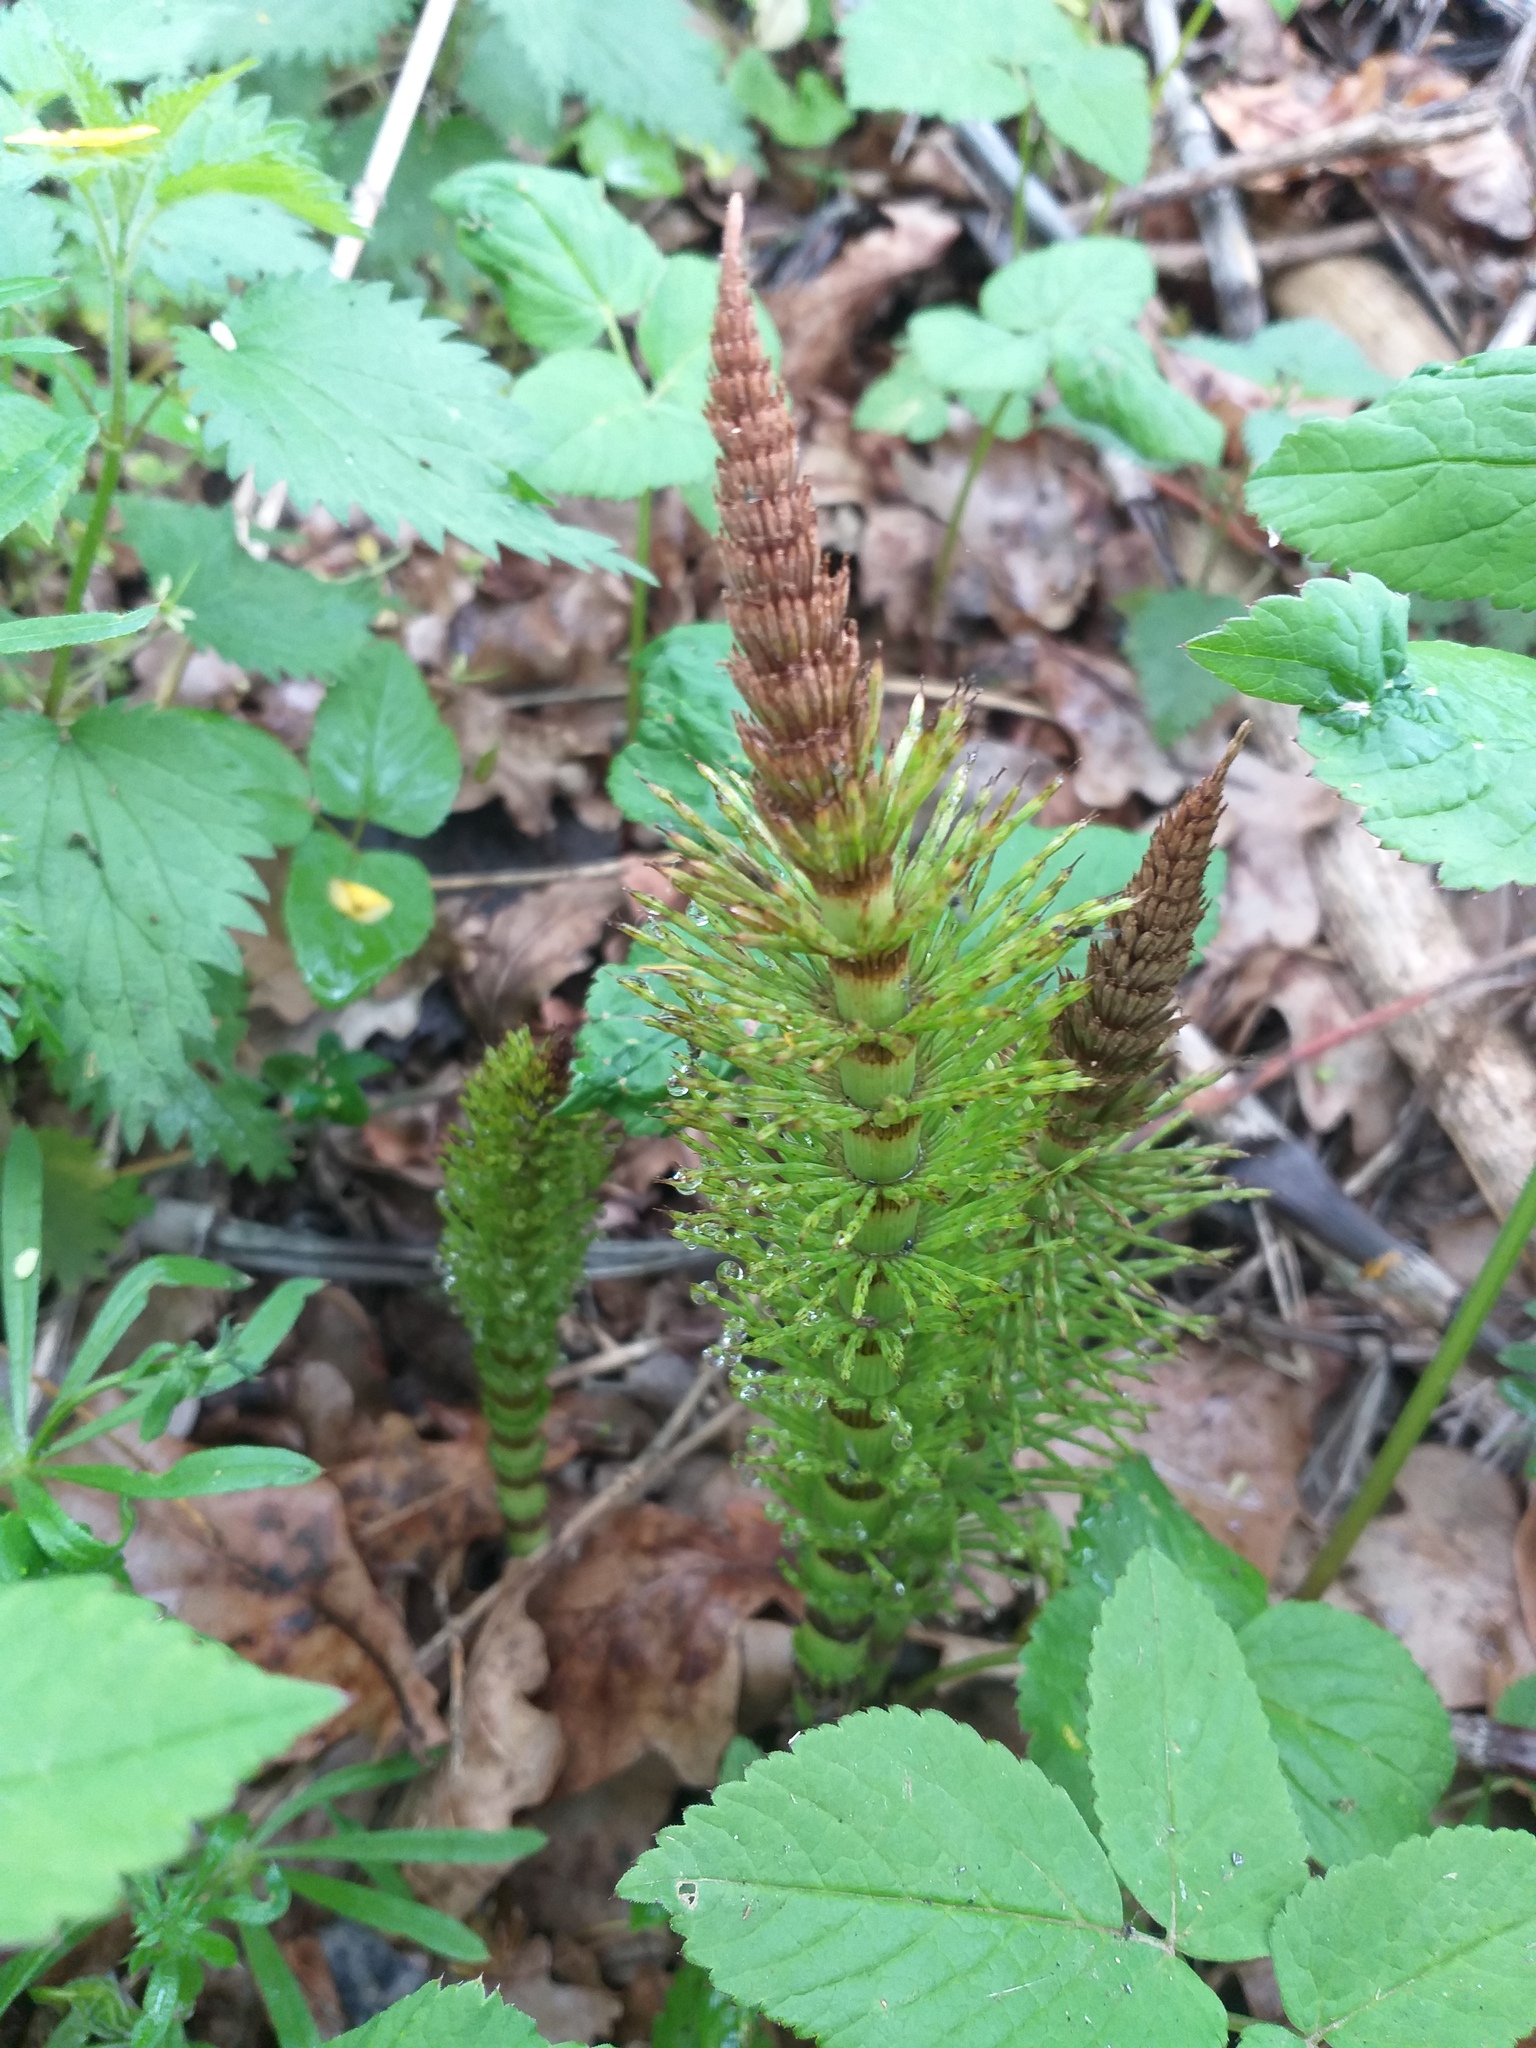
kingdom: Plantae
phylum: Tracheophyta
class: Polypodiopsida
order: Equisetales
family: Equisetaceae
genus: Equisetum
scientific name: Equisetum telmateia
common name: Great horsetail
